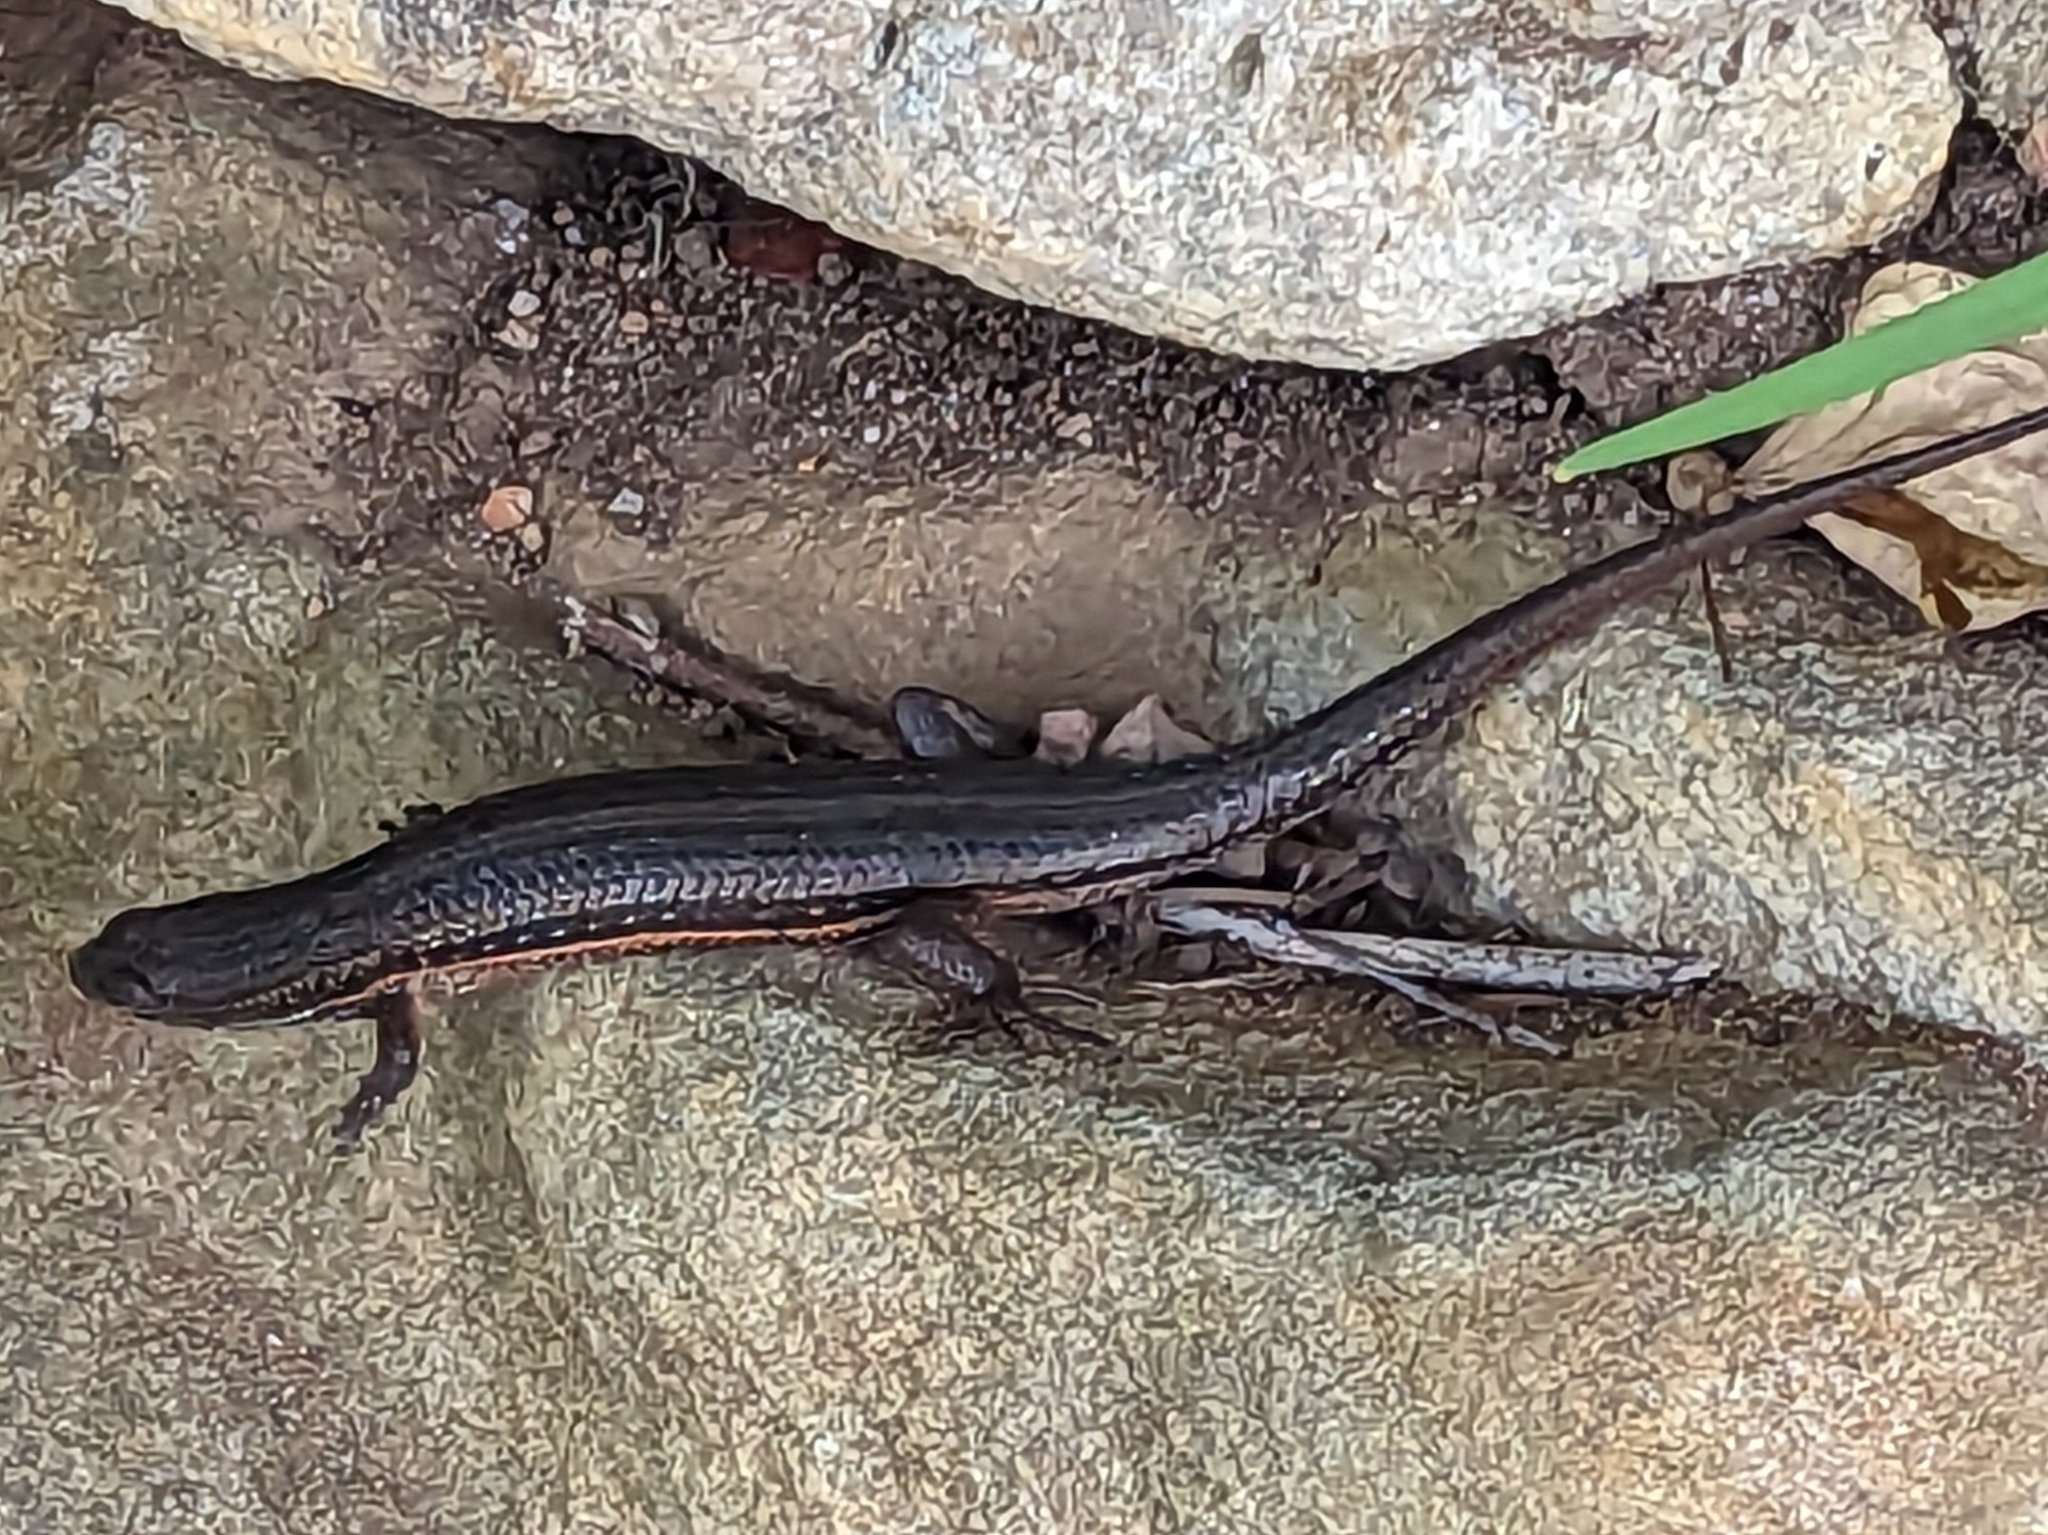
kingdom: Animalia
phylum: Chordata
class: Squamata
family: Scincidae
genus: Trachylepis
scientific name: Trachylepis homalocephala
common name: Red-sided skink
